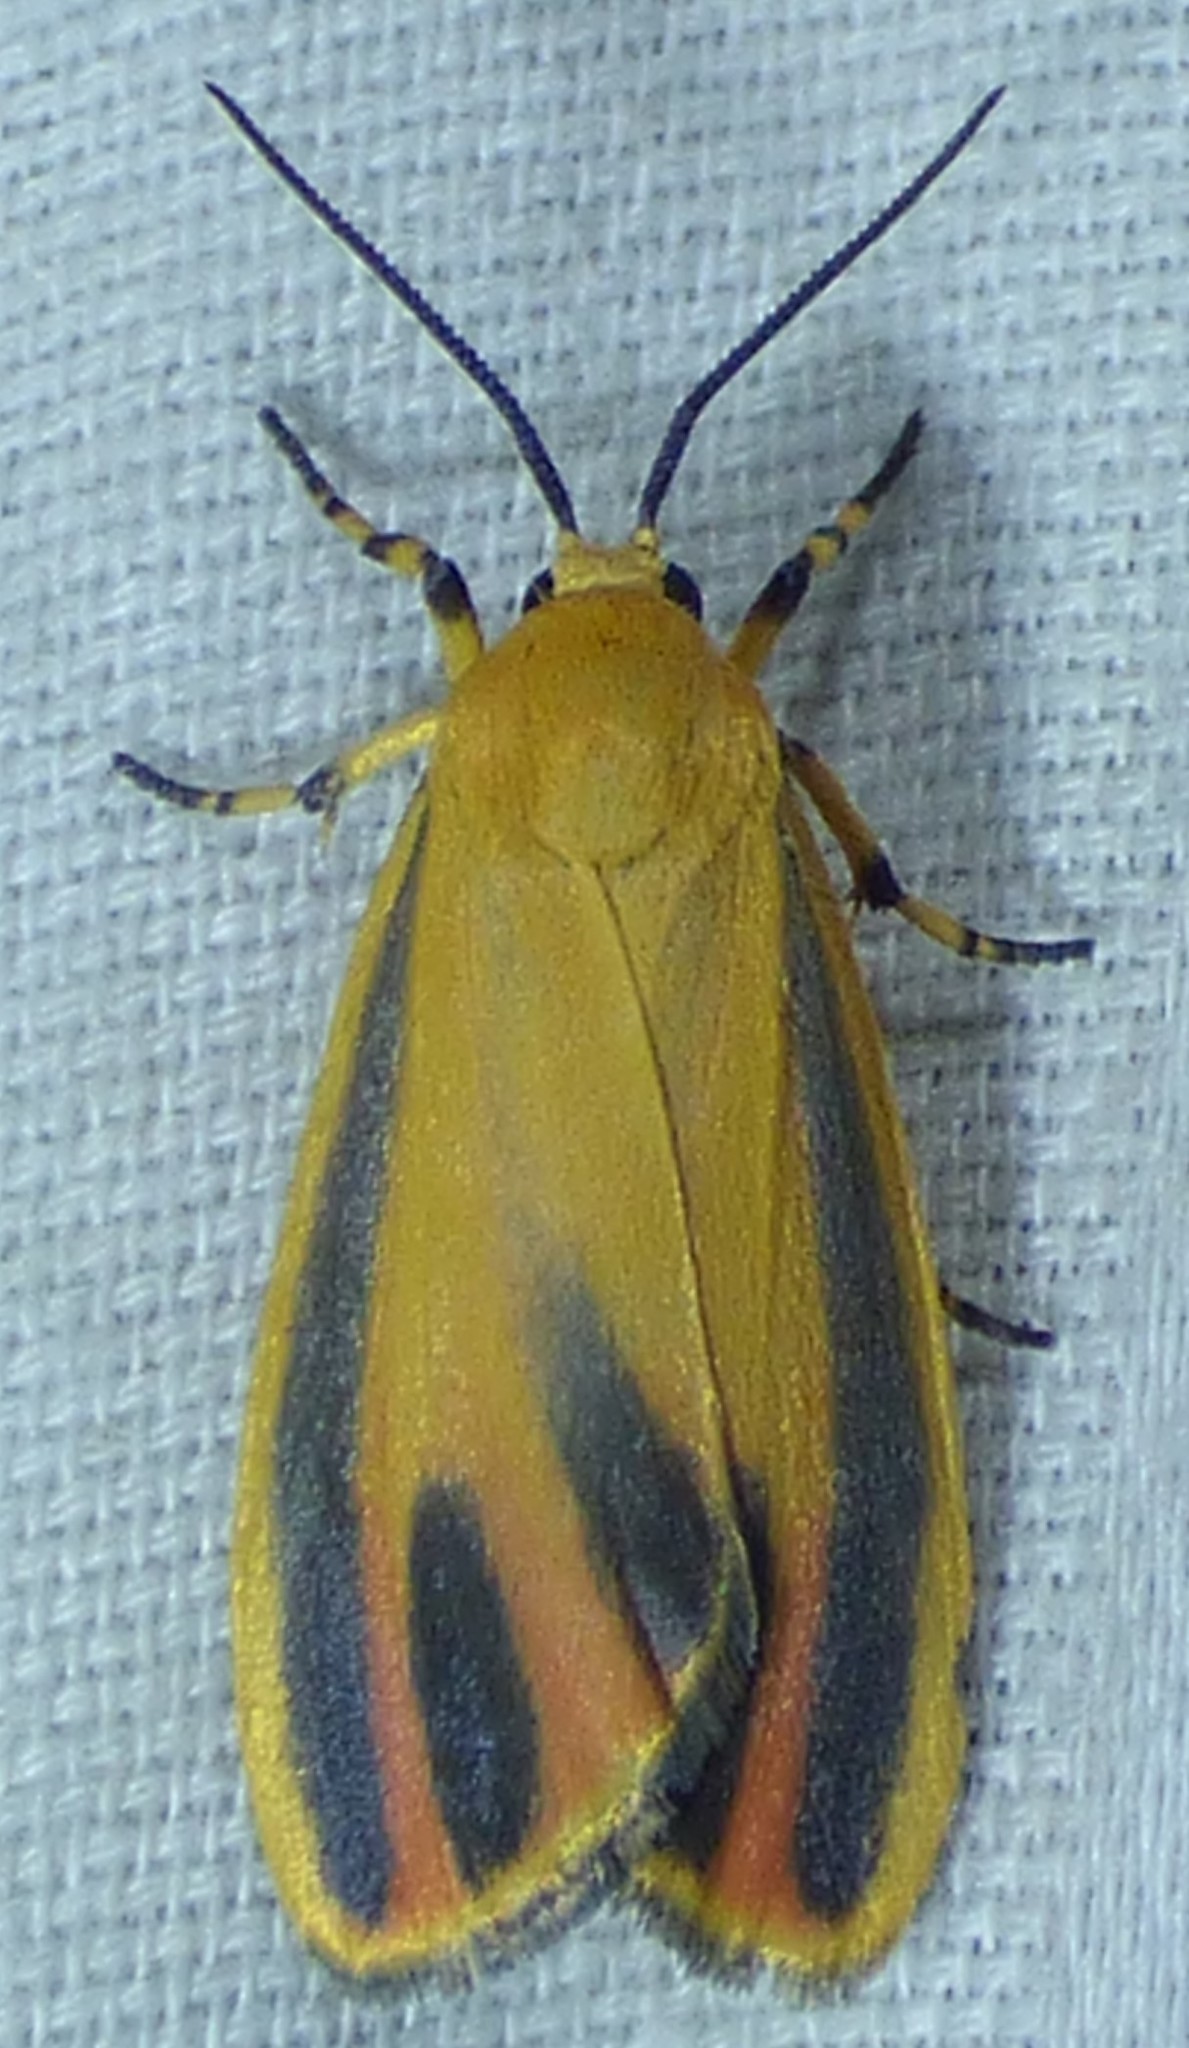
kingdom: Animalia
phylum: Arthropoda
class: Insecta
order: Lepidoptera
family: Erebidae
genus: Hypoprepia
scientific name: Hypoprepia fucosa
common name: Painted lichen moth
